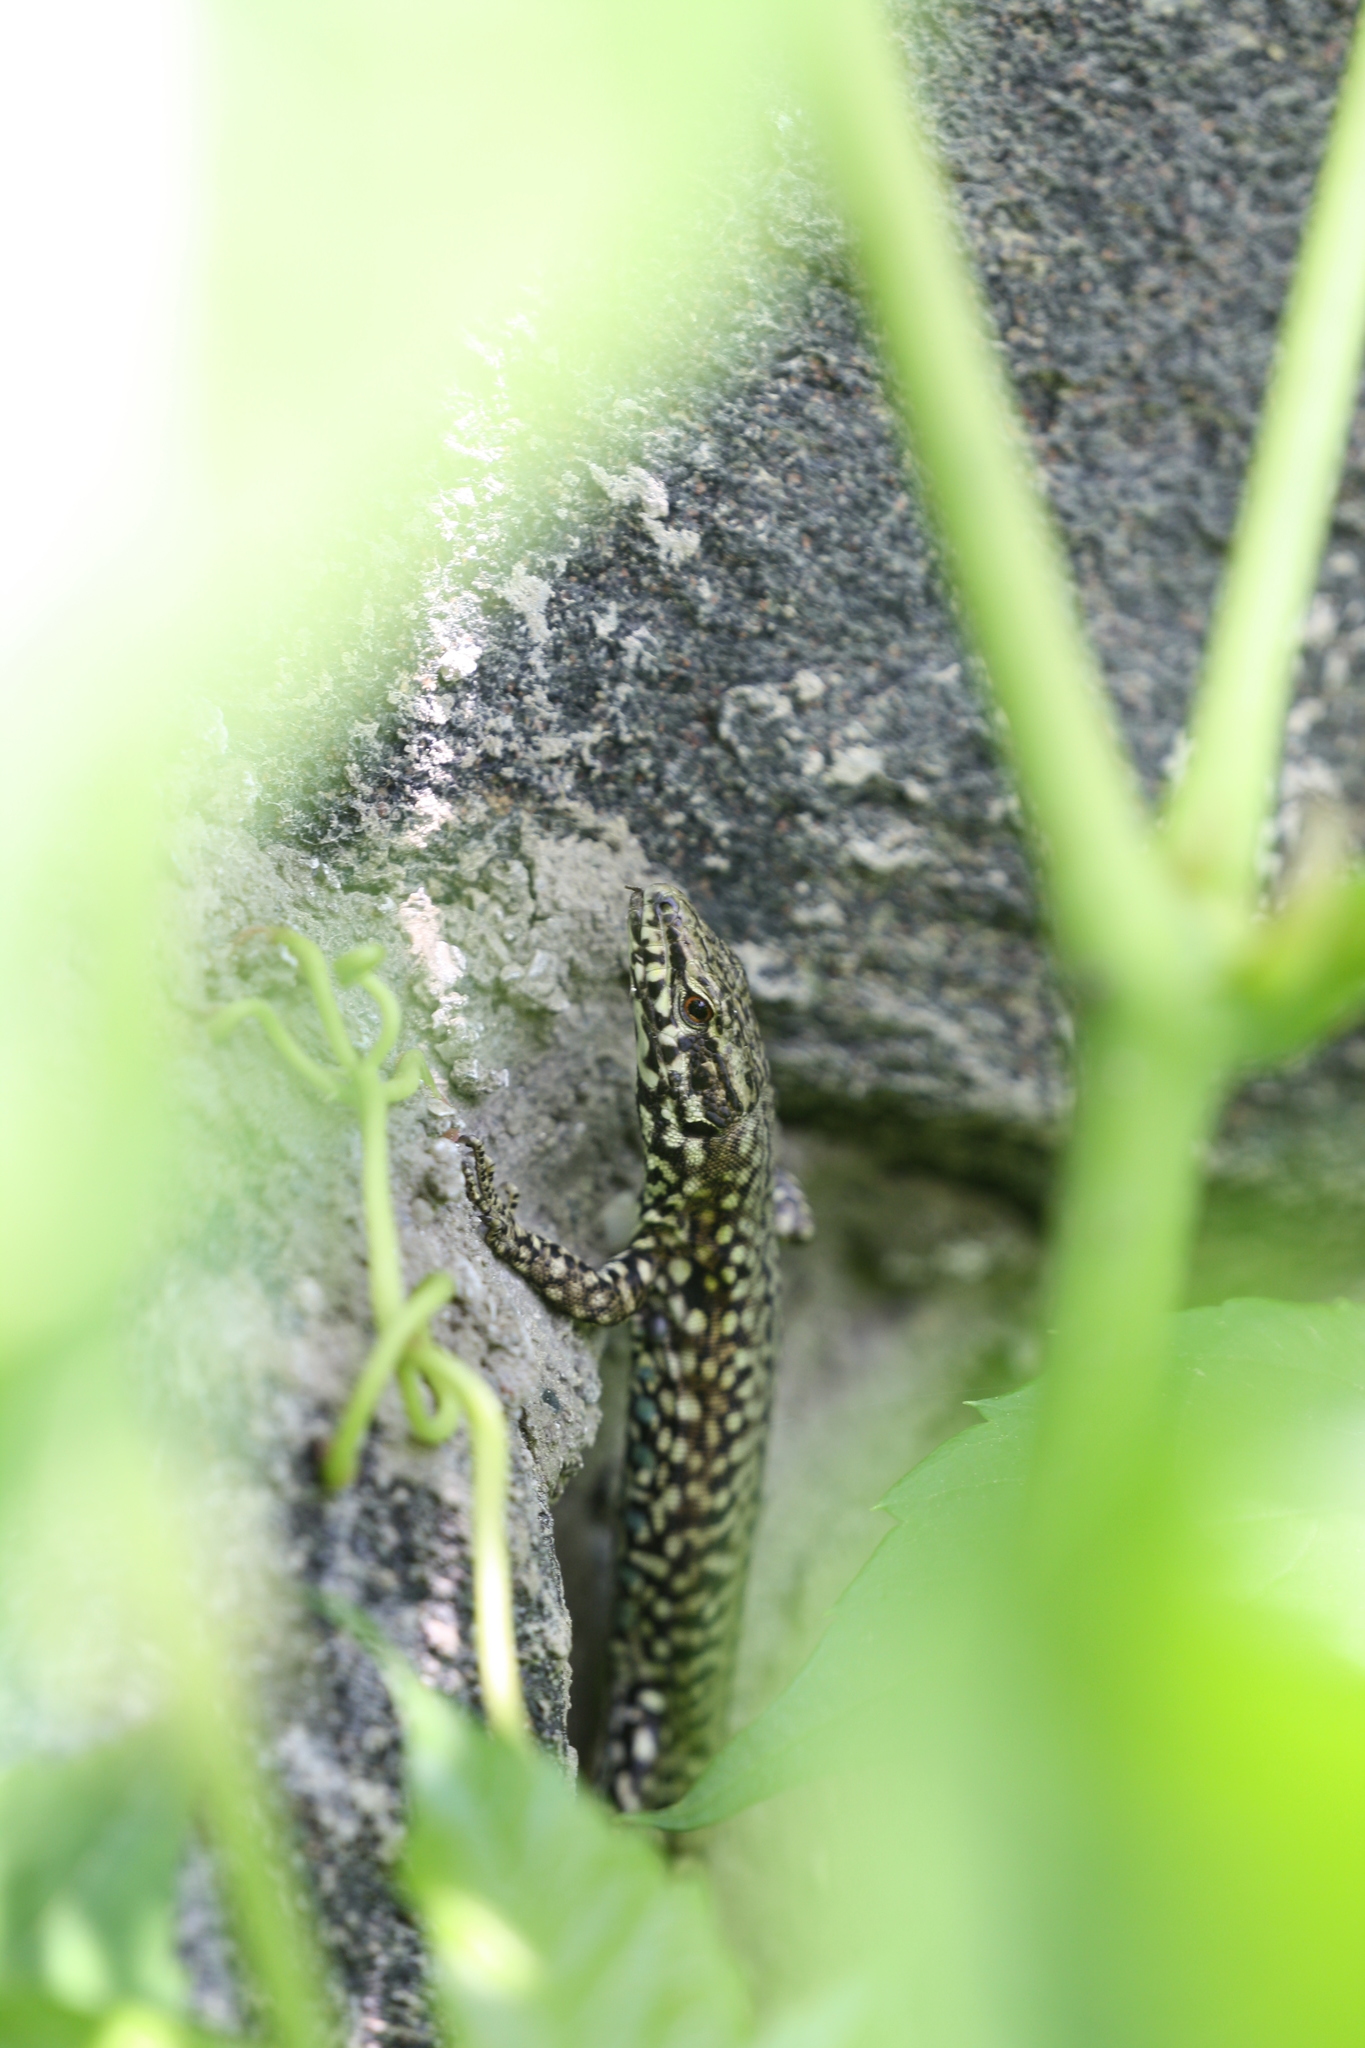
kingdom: Animalia
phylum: Chordata
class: Squamata
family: Lacertidae
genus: Podarcis
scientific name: Podarcis muralis
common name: Common wall lizard
